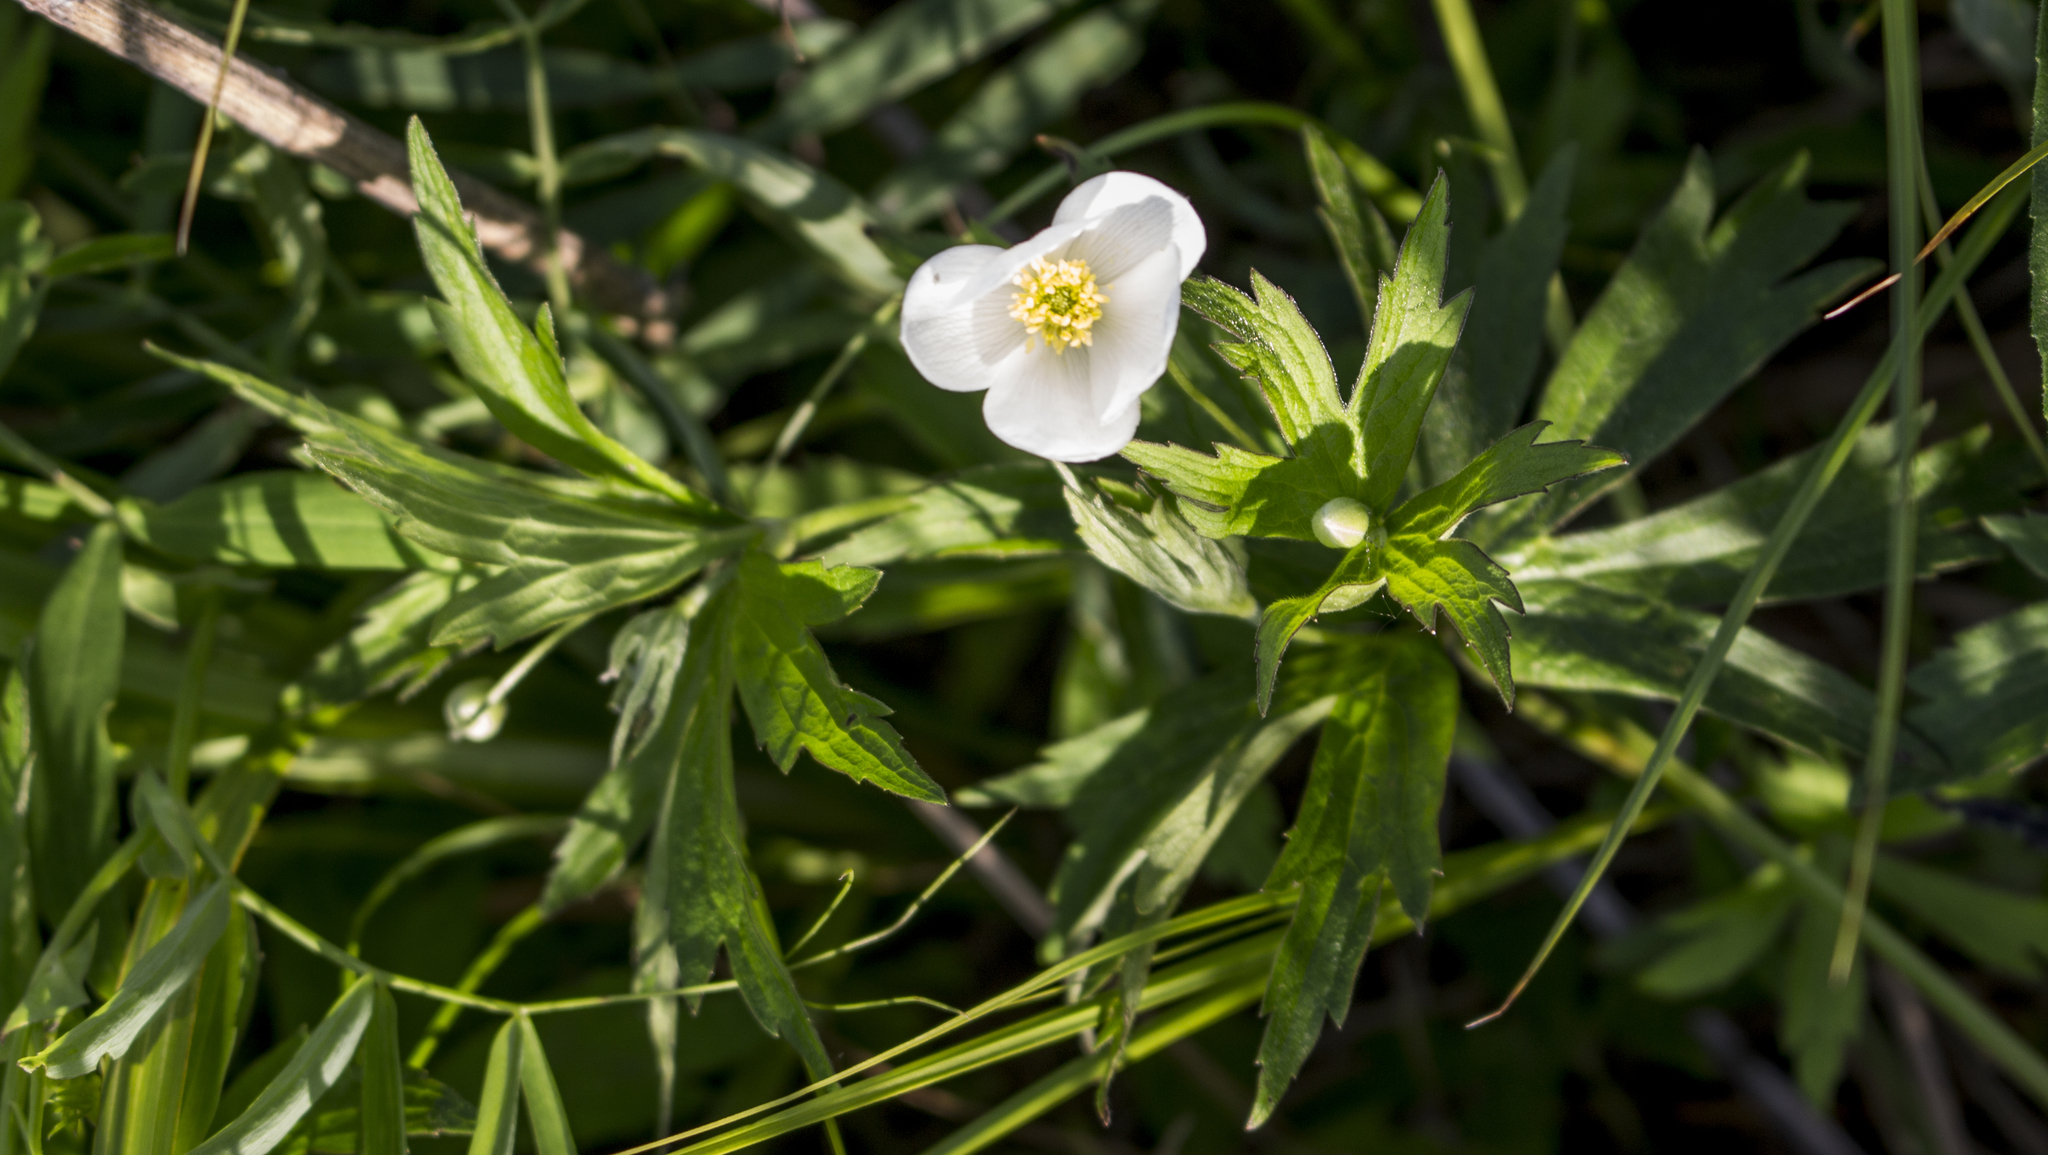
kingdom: Plantae
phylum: Tracheophyta
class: Magnoliopsida
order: Ranunculales
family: Ranunculaceae
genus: Anemonastrum
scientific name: Anemonastrum canadense
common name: Canada anemone
